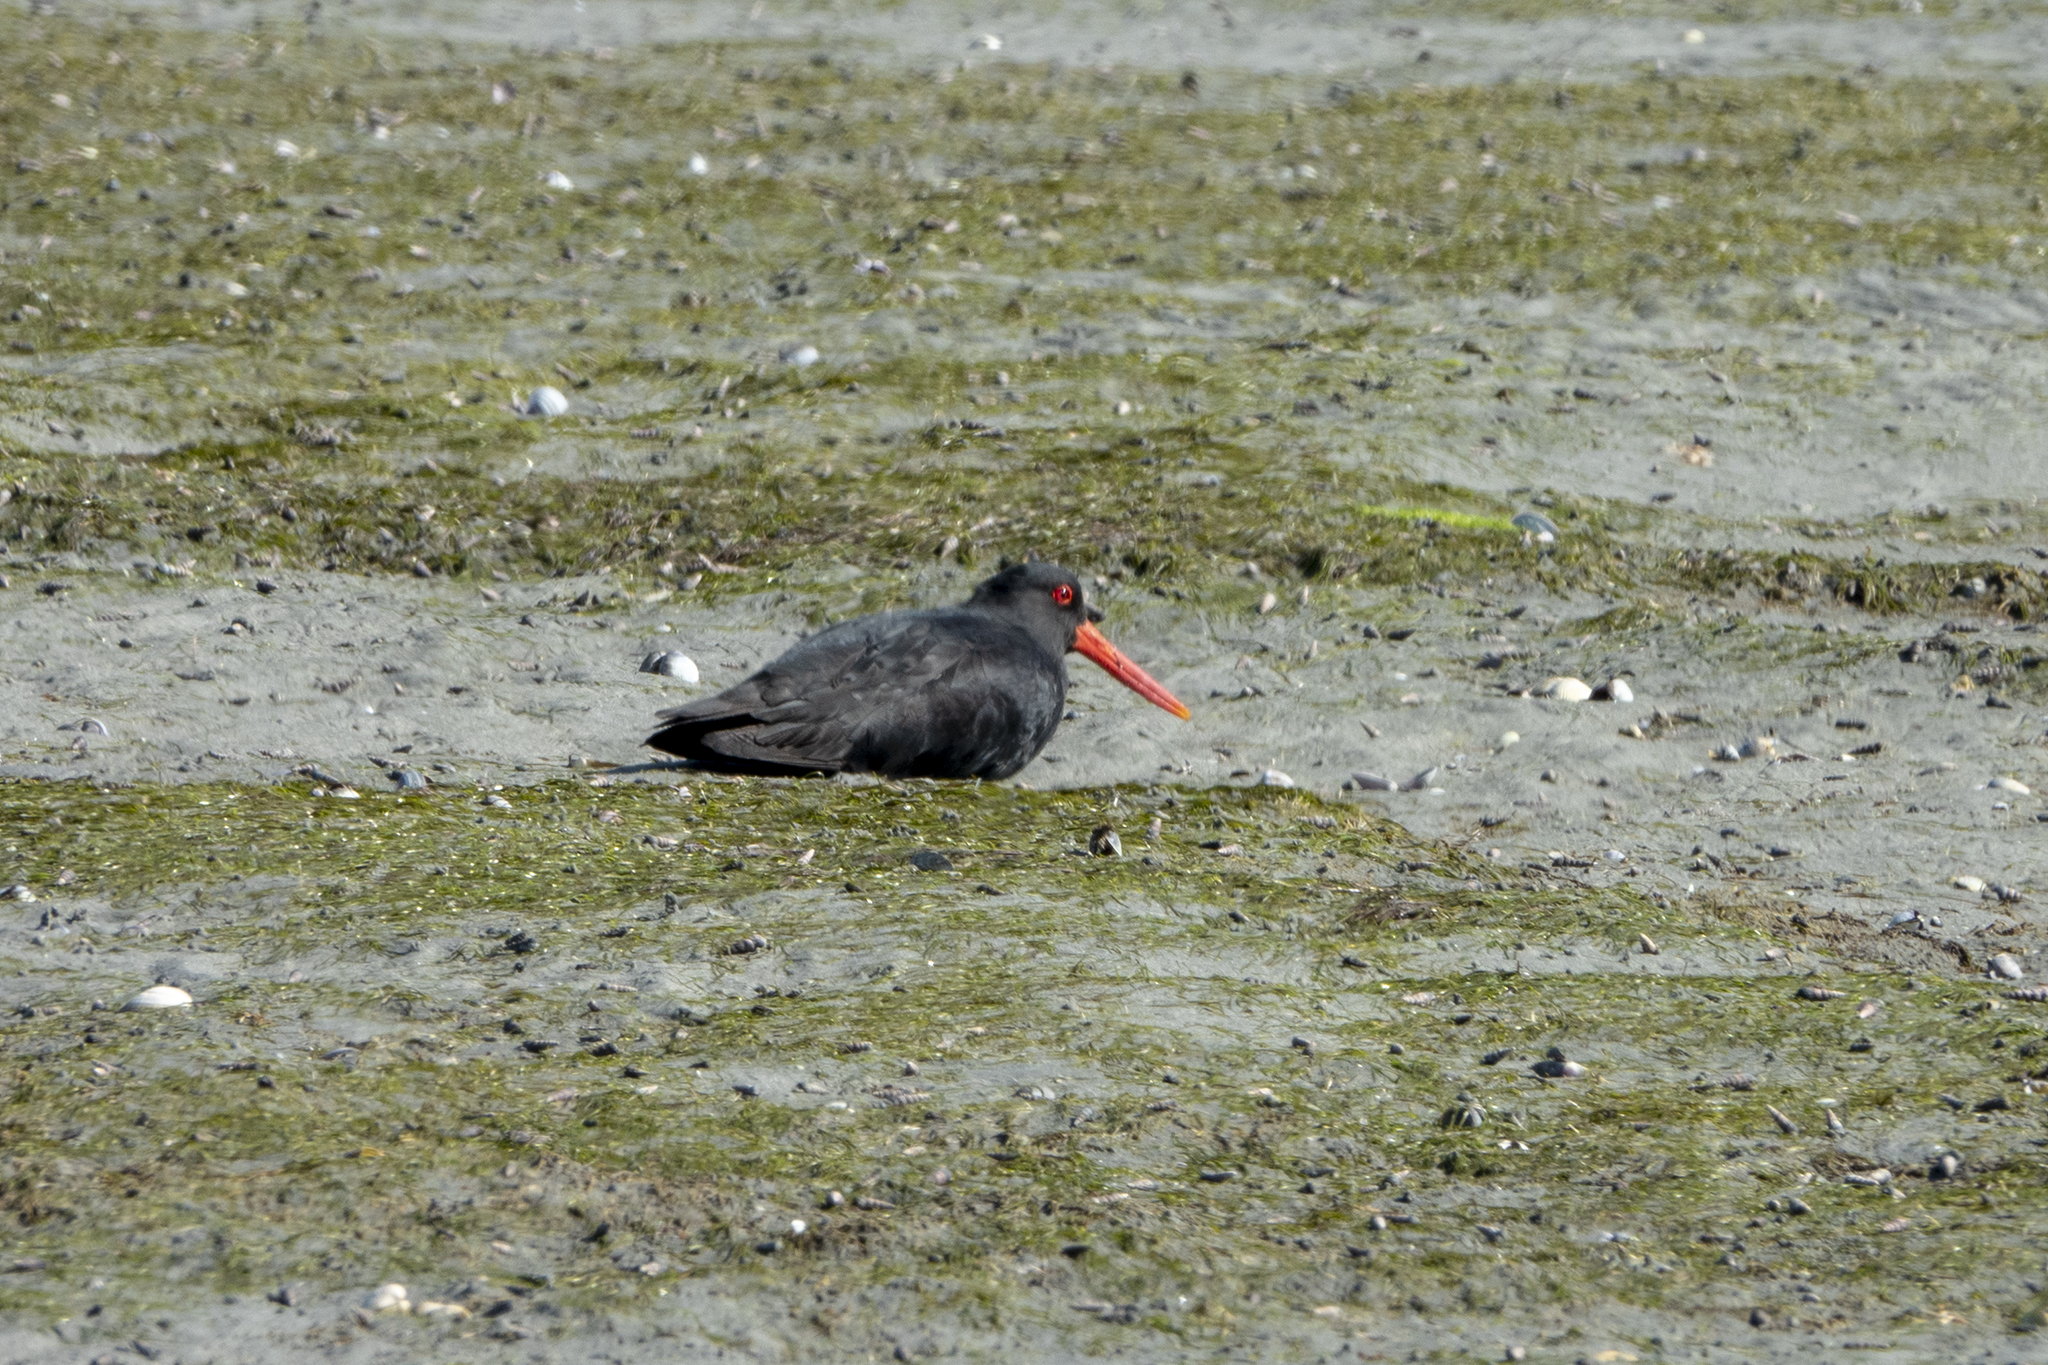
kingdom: Animalia
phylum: Chordata
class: Aves
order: Charadriiformes
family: Haematopodidae
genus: Haematopus
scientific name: Haematopus unicolor
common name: Variable oystercatcher
